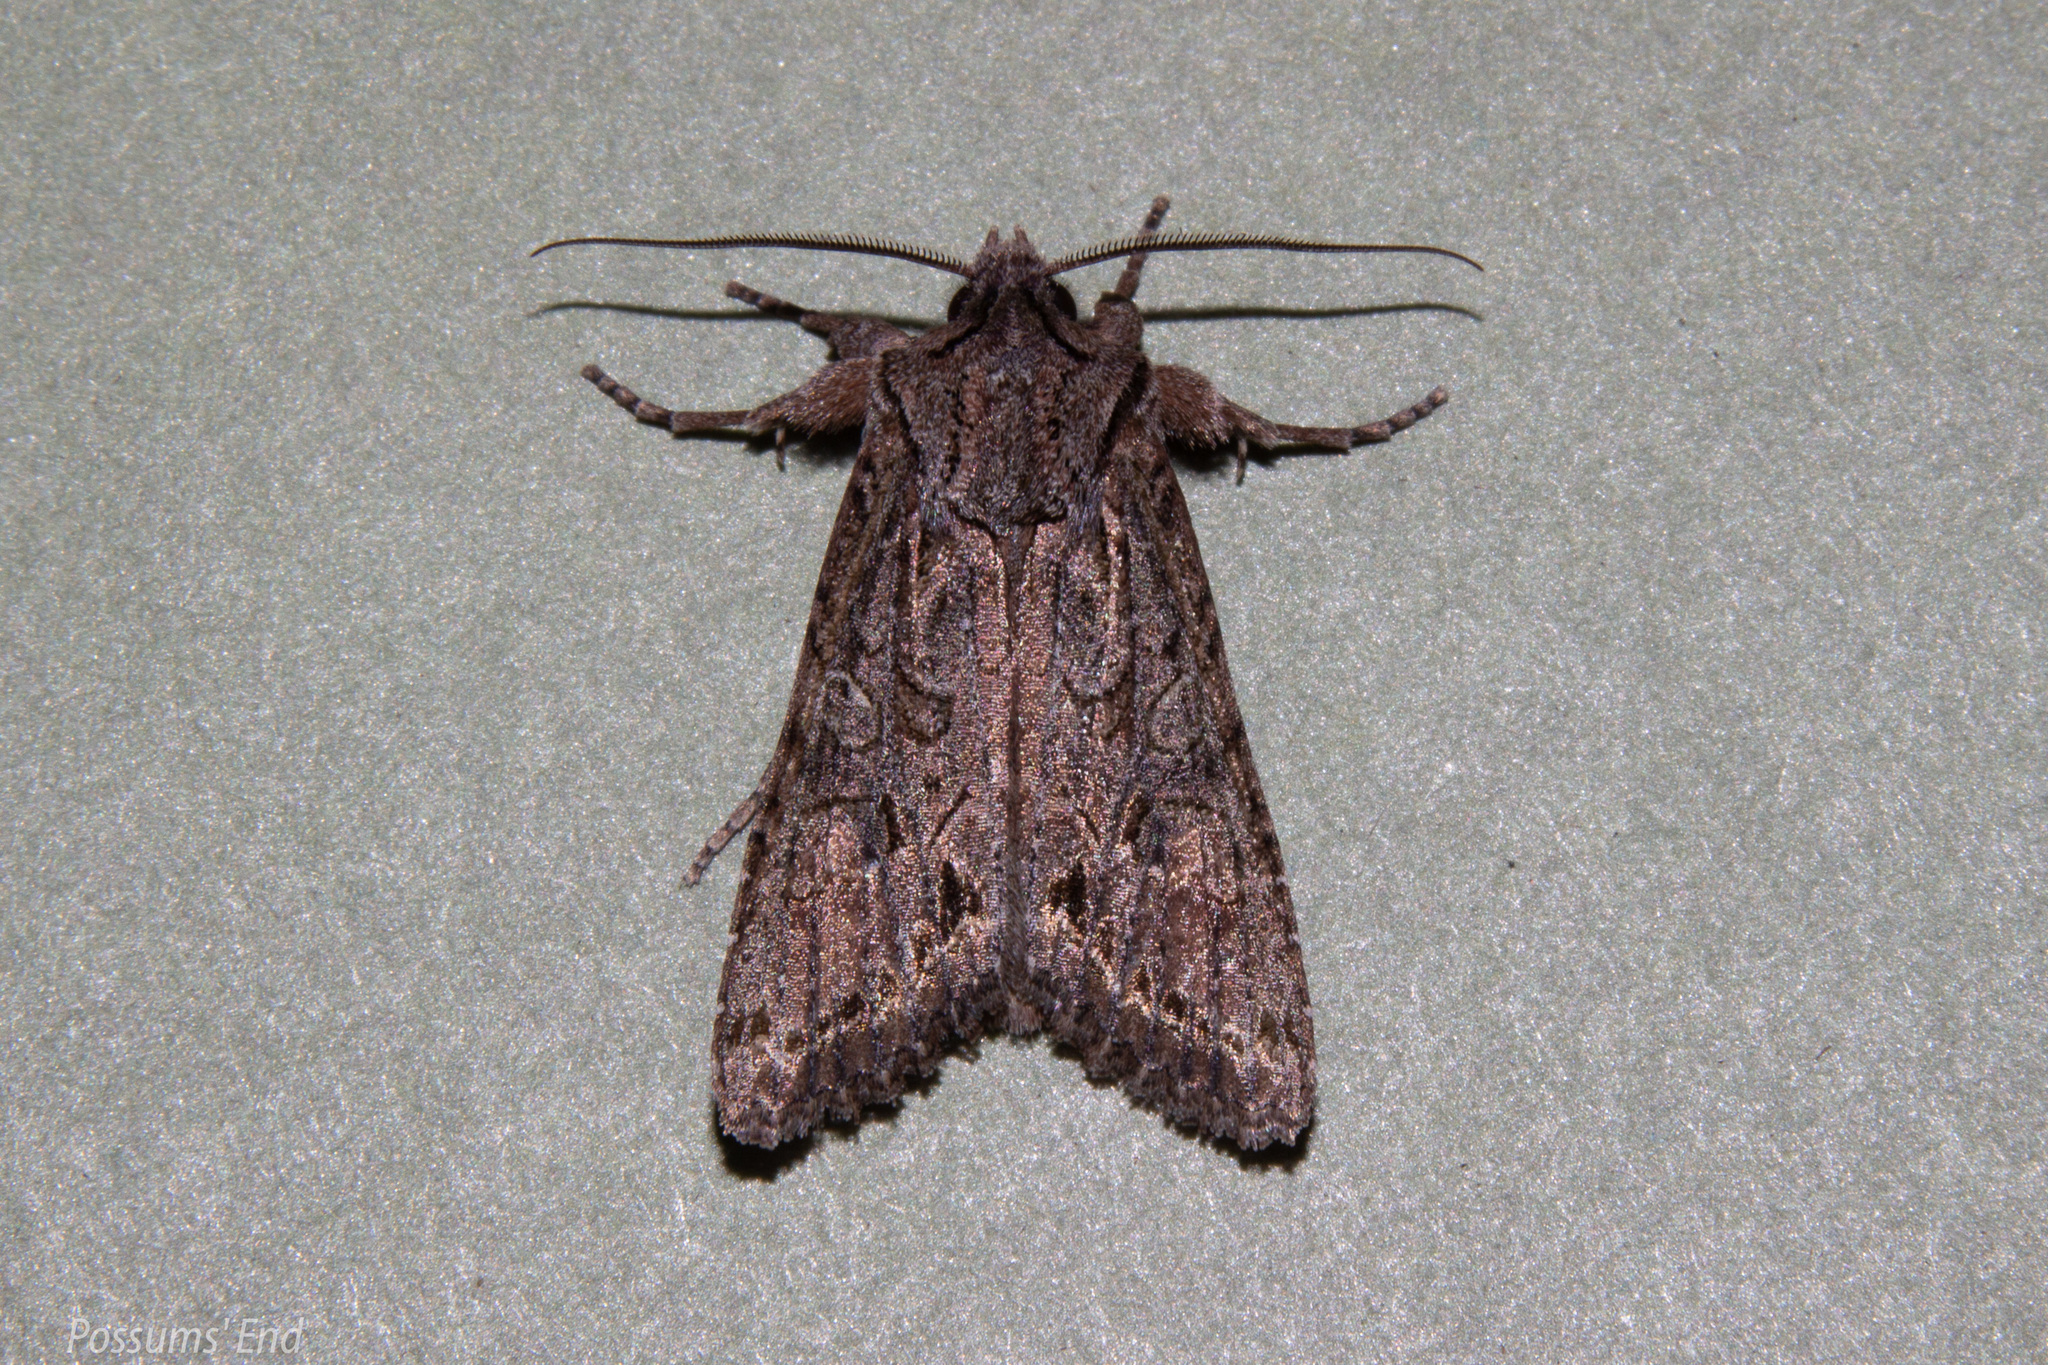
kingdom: Animalia
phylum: Arthropoda
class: Insecta
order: Lepidoptera
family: Noctuidae
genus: Ichneutica
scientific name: Ichneutica mutans
